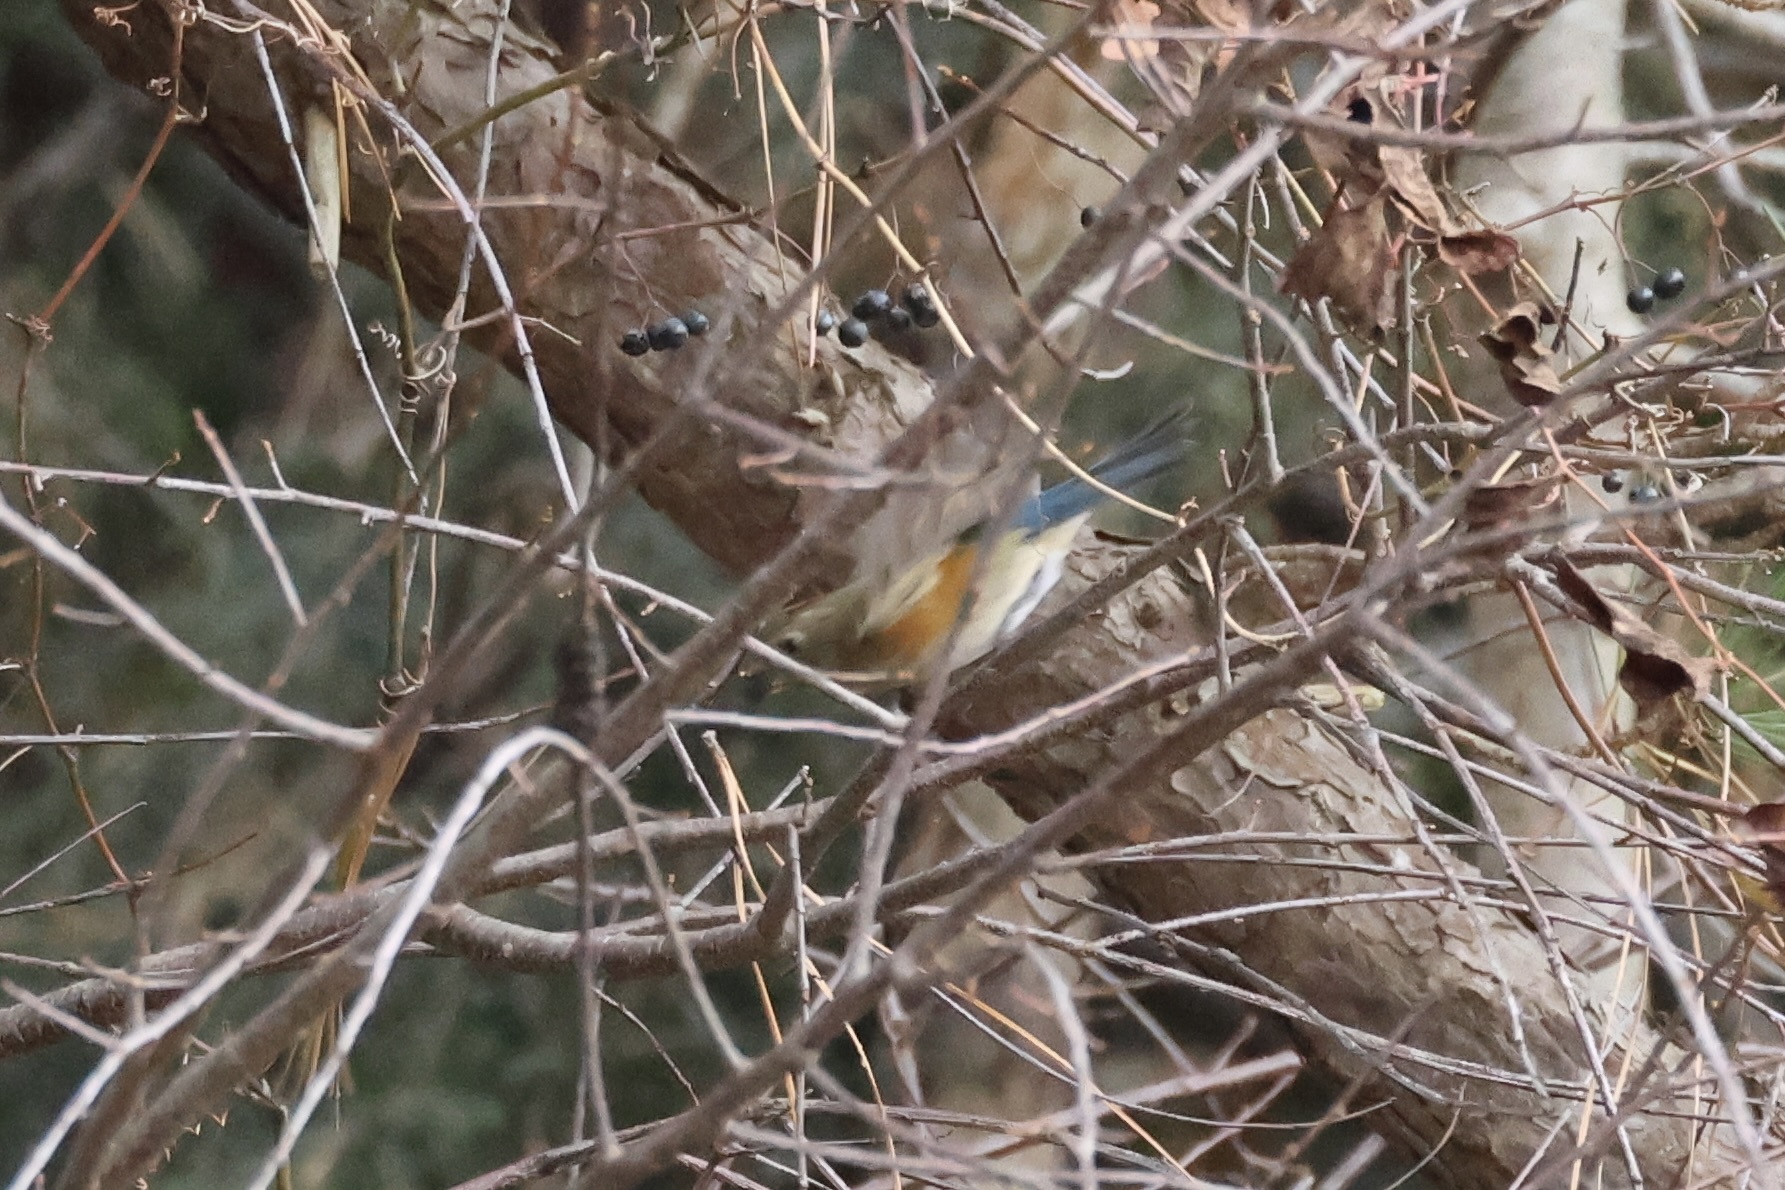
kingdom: Animalia
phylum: Chordata
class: Aves
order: Passeriformes
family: Muscicapidae
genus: Tarsiger
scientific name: Tarsiger cyanurus
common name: Red-flanked bluetail
